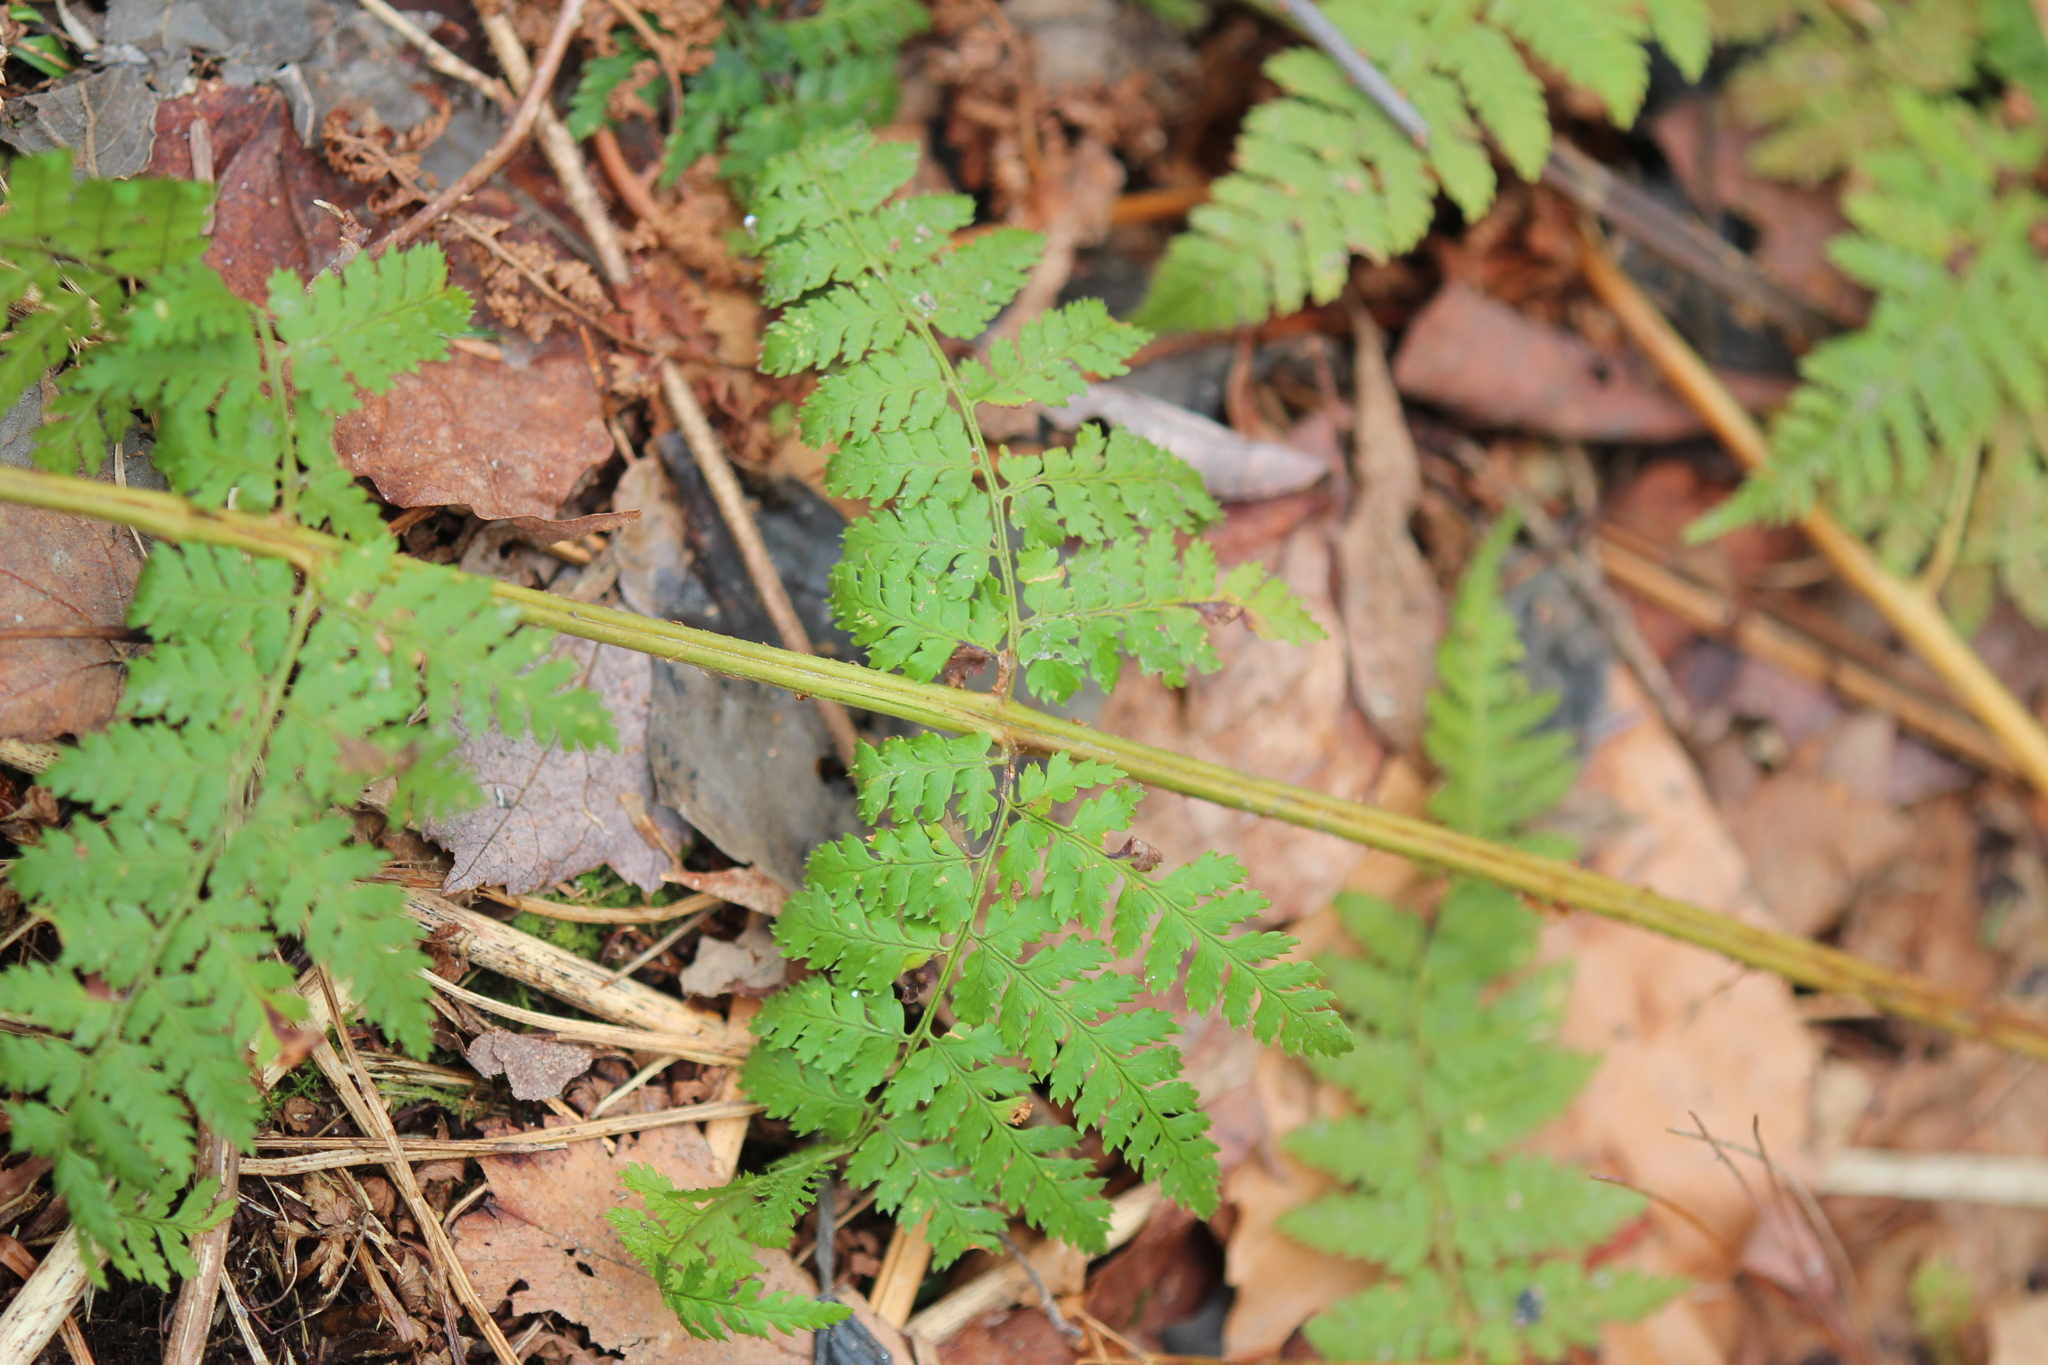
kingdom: Plantae
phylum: Tracheophyta
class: Polypodiopsida
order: Polypodiales
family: Dryopteridaceae
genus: Dryopteris
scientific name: Dryopteris intermedia
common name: Evergreen wood fern
